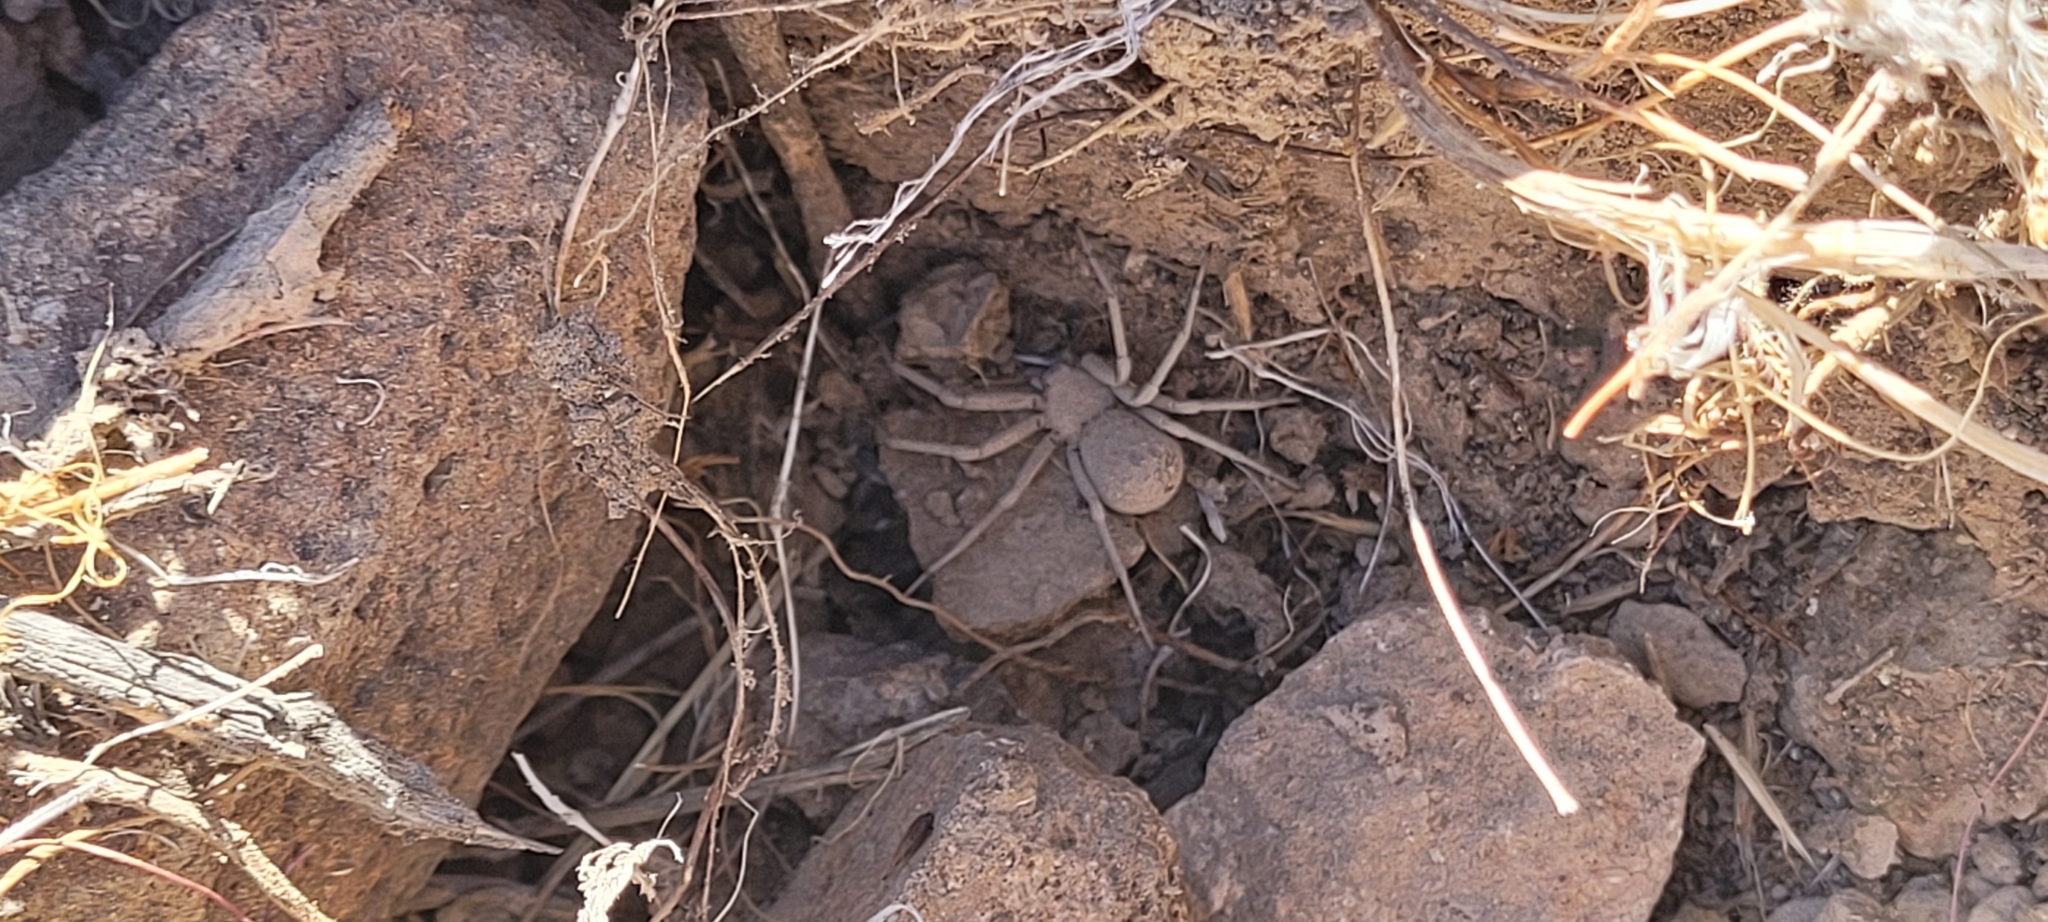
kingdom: Animalia
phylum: Arthropoda
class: Arachnida
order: Araneae
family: Sicariidae
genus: Sicarius
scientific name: Sicarius thomisoides
